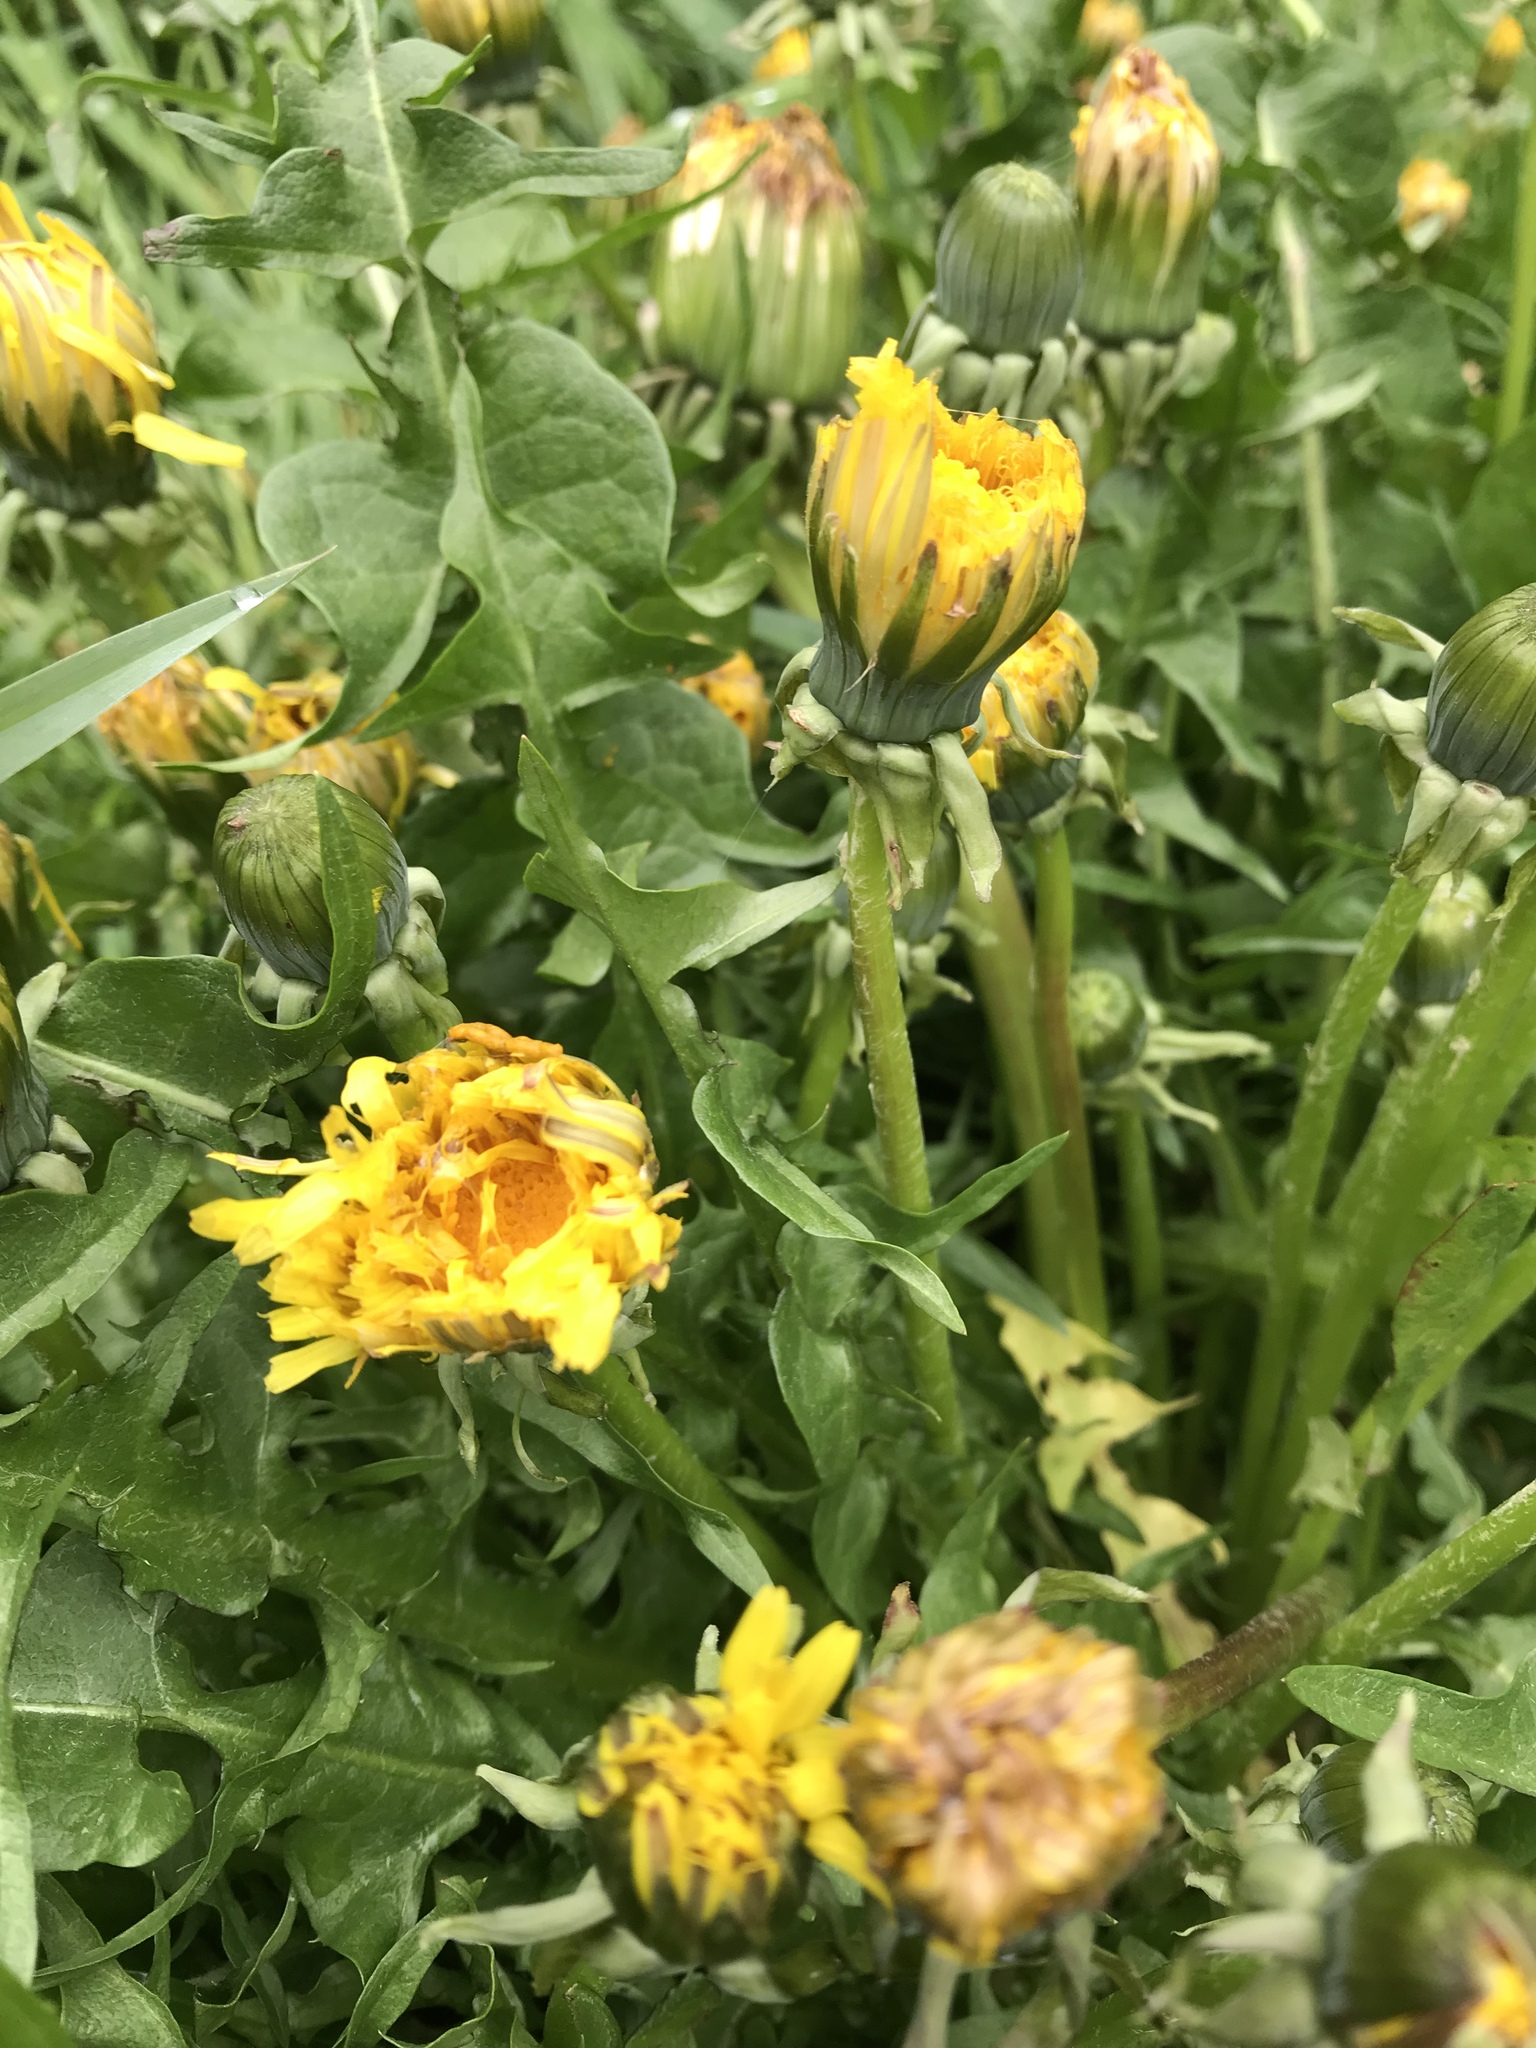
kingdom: Plantae
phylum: Tracheophyta
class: Magnoliopsida
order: Asterales
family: Asteraceae
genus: Taraxacum
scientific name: Taraxacum officinale
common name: Common dandelion
